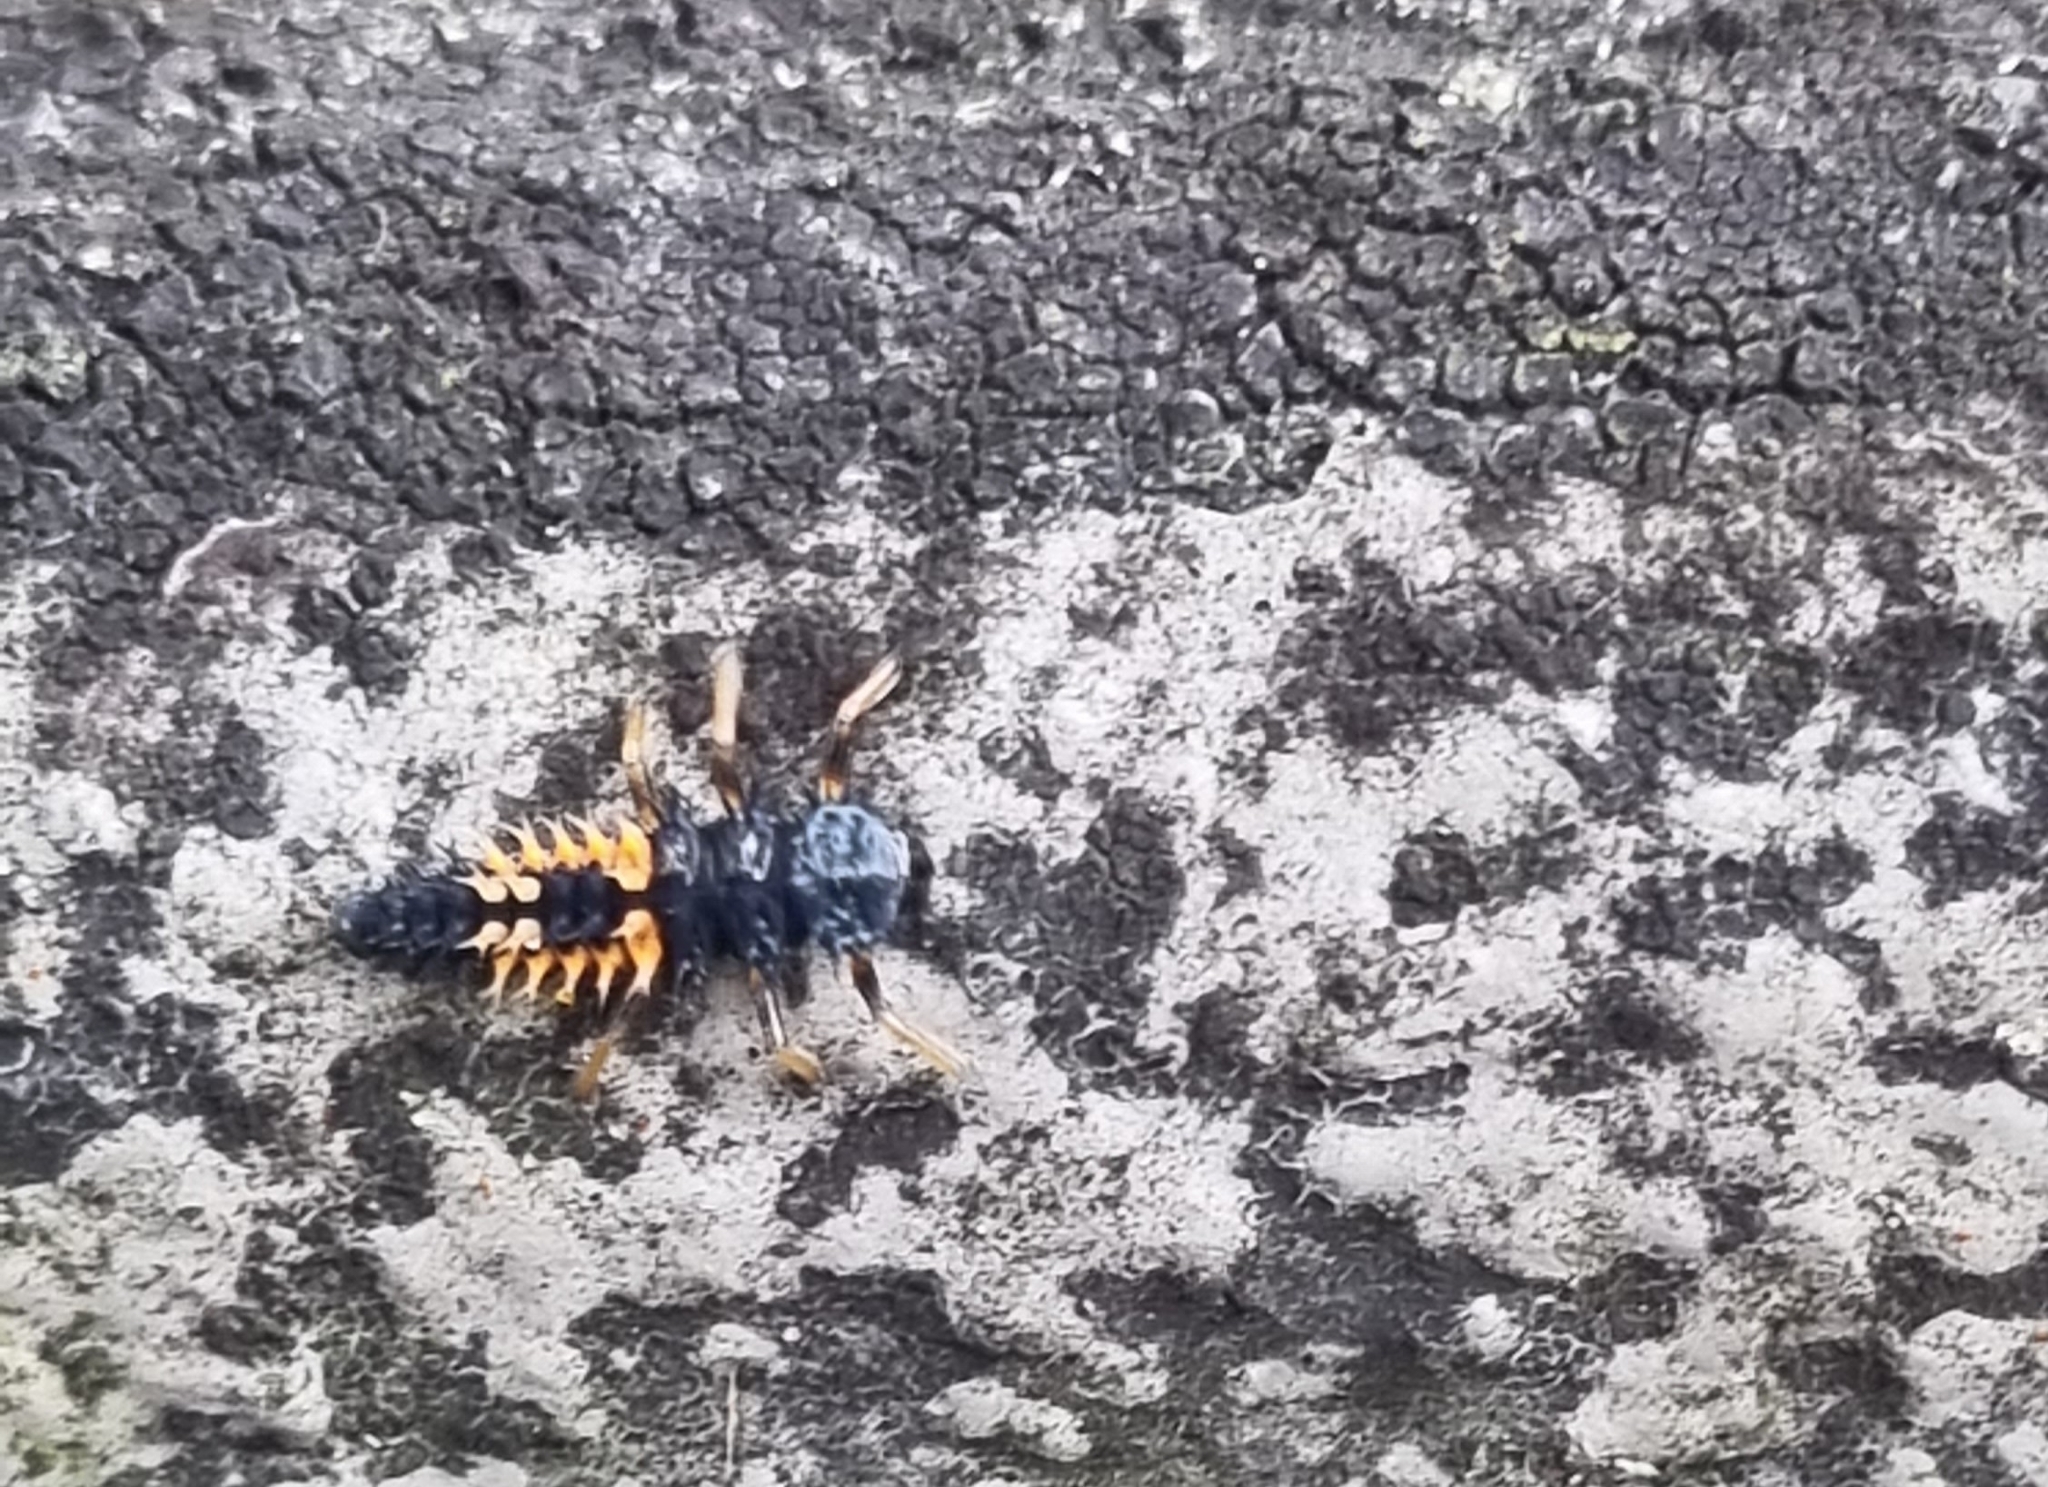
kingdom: Animalia
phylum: Arthropoda
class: Insecta
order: Coleoptera
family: Coccinellidae
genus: Harmonia
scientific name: Harmonia axyridis
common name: Harlequin ladybird
